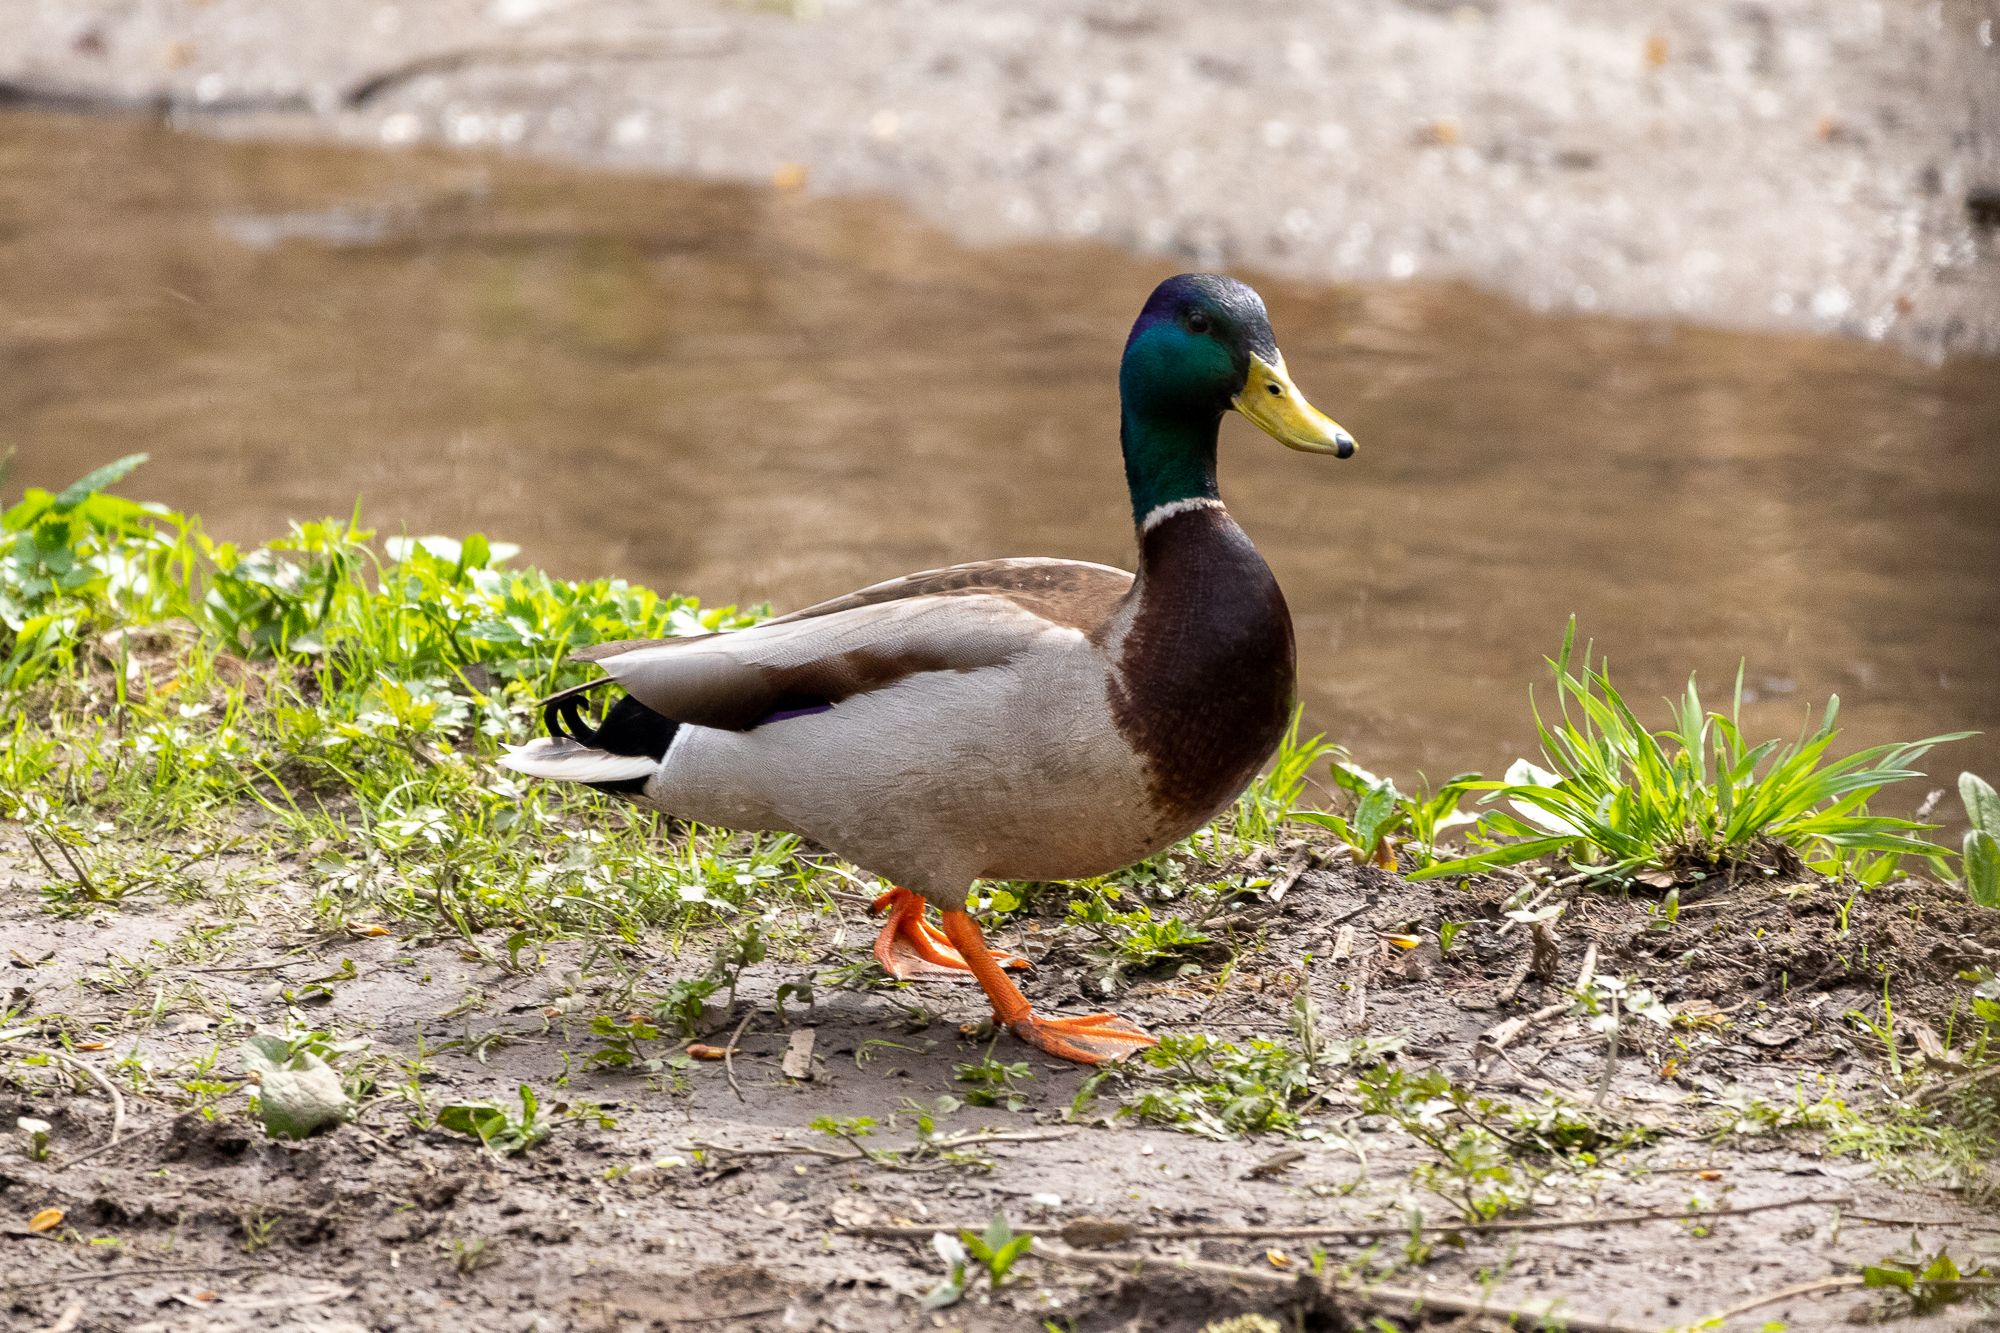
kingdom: Animalia
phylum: Chordata
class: Aves
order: Anseriformes
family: Anatidae
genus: Anas
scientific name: Anas platyrhynchos
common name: Mallard
